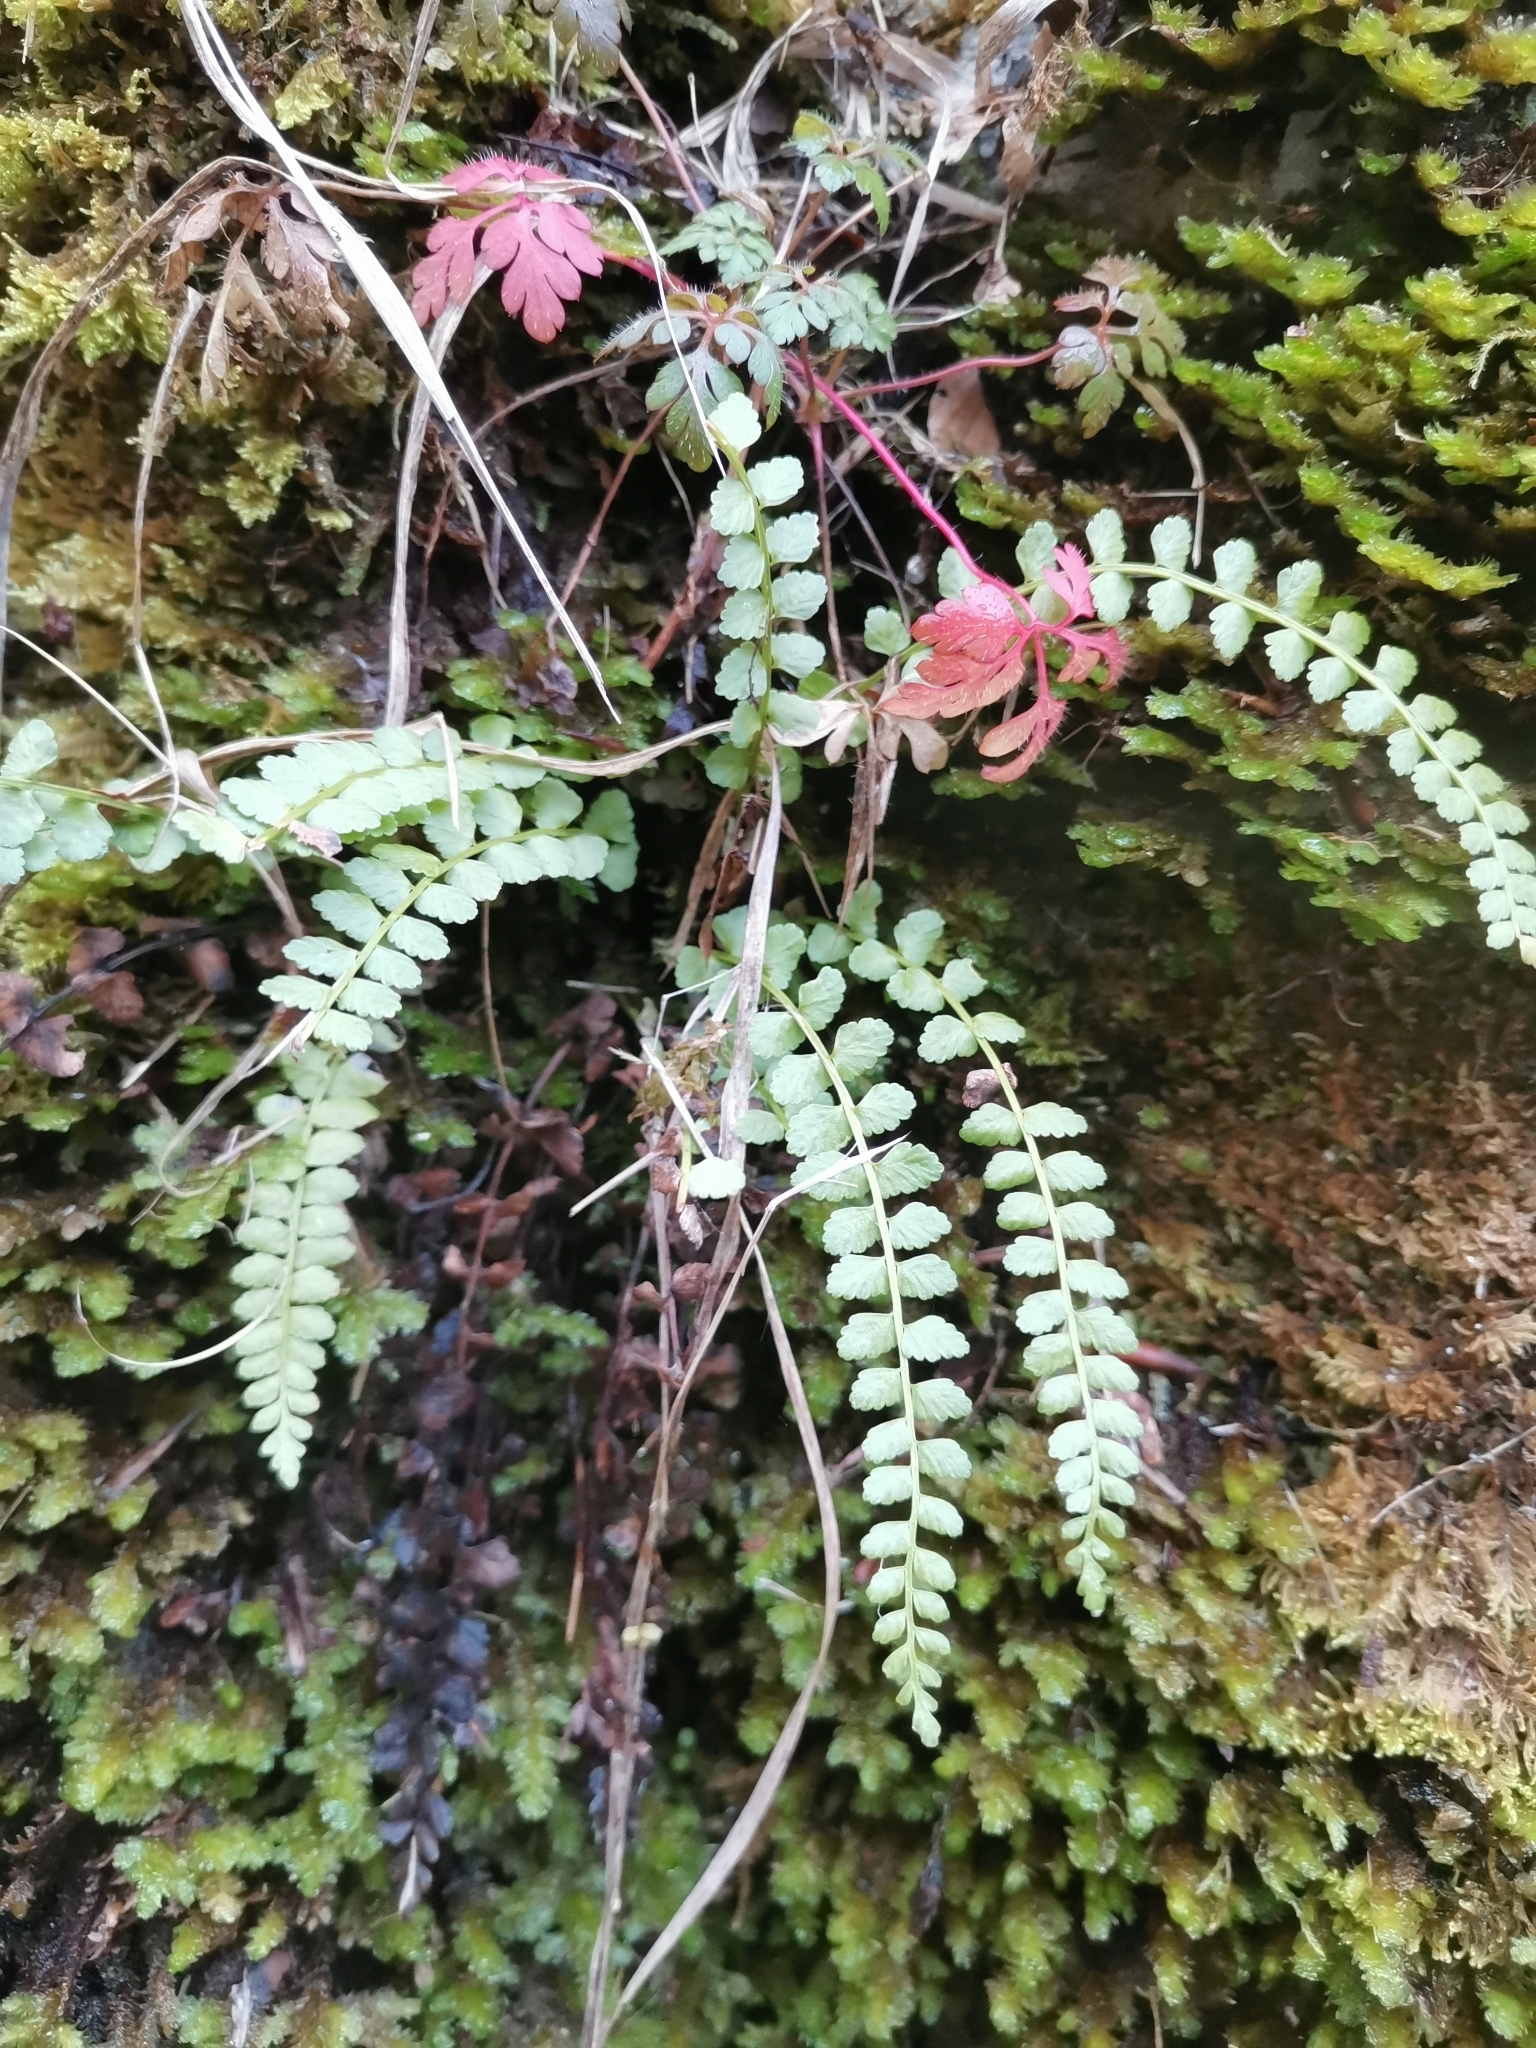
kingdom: Plantae
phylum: Tracheophyta
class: Polypodiopsida
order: Polypodiales
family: Aspleniaceae
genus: Asplenium
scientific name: Asplenium viride
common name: Green spleenwort
